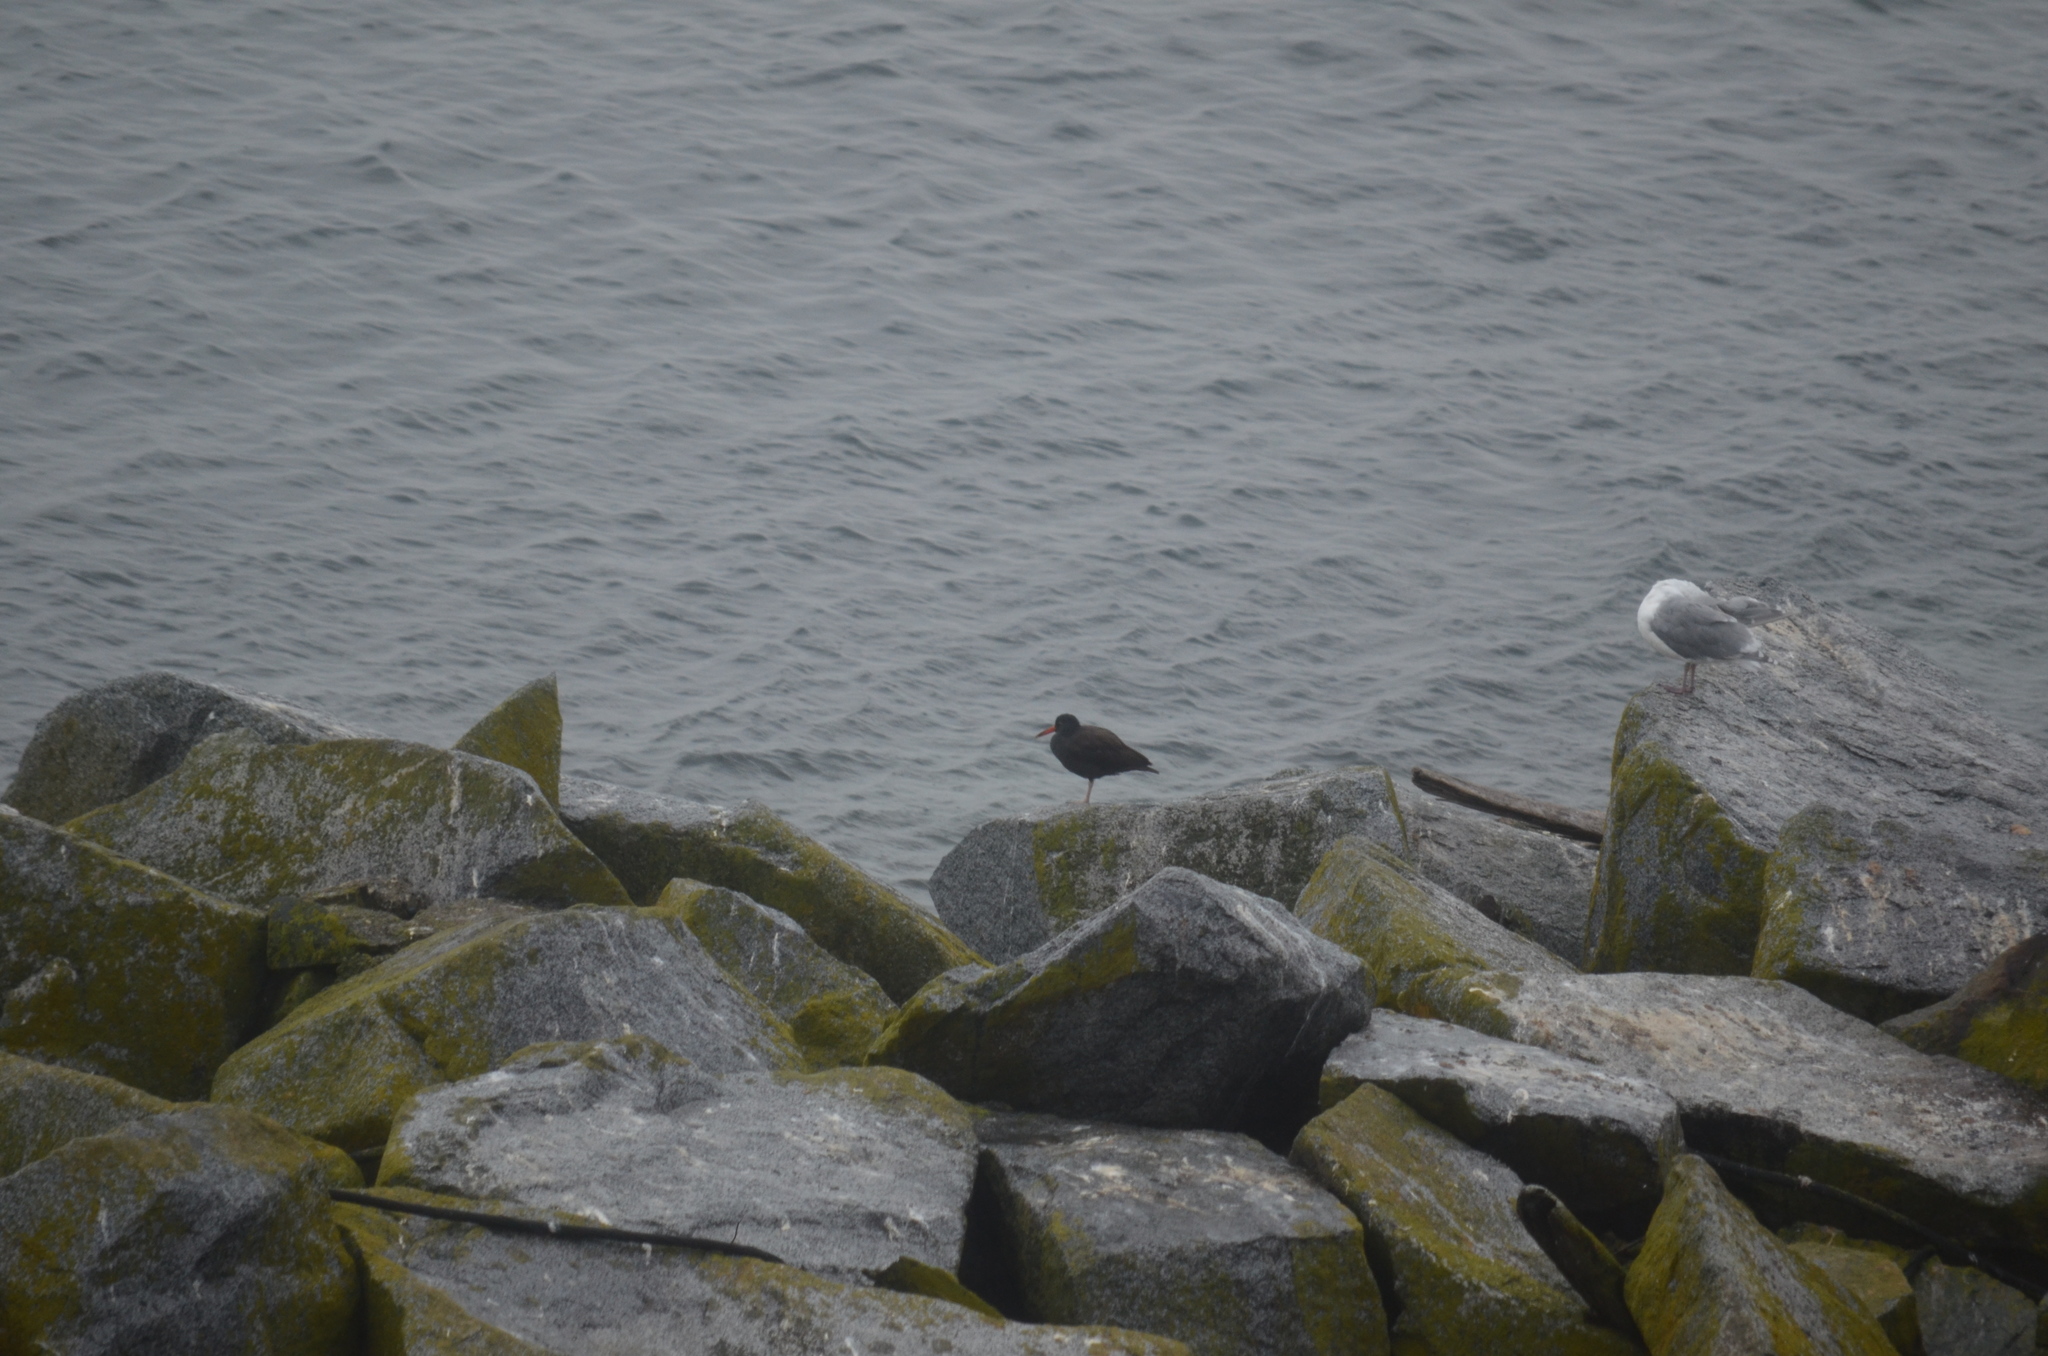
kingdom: Animalia
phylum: Chordata
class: Aves
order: Charadriiformes
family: Haematopodidae
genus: Haematopus
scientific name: Haematopus bachmani
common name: Black oystercatcher
